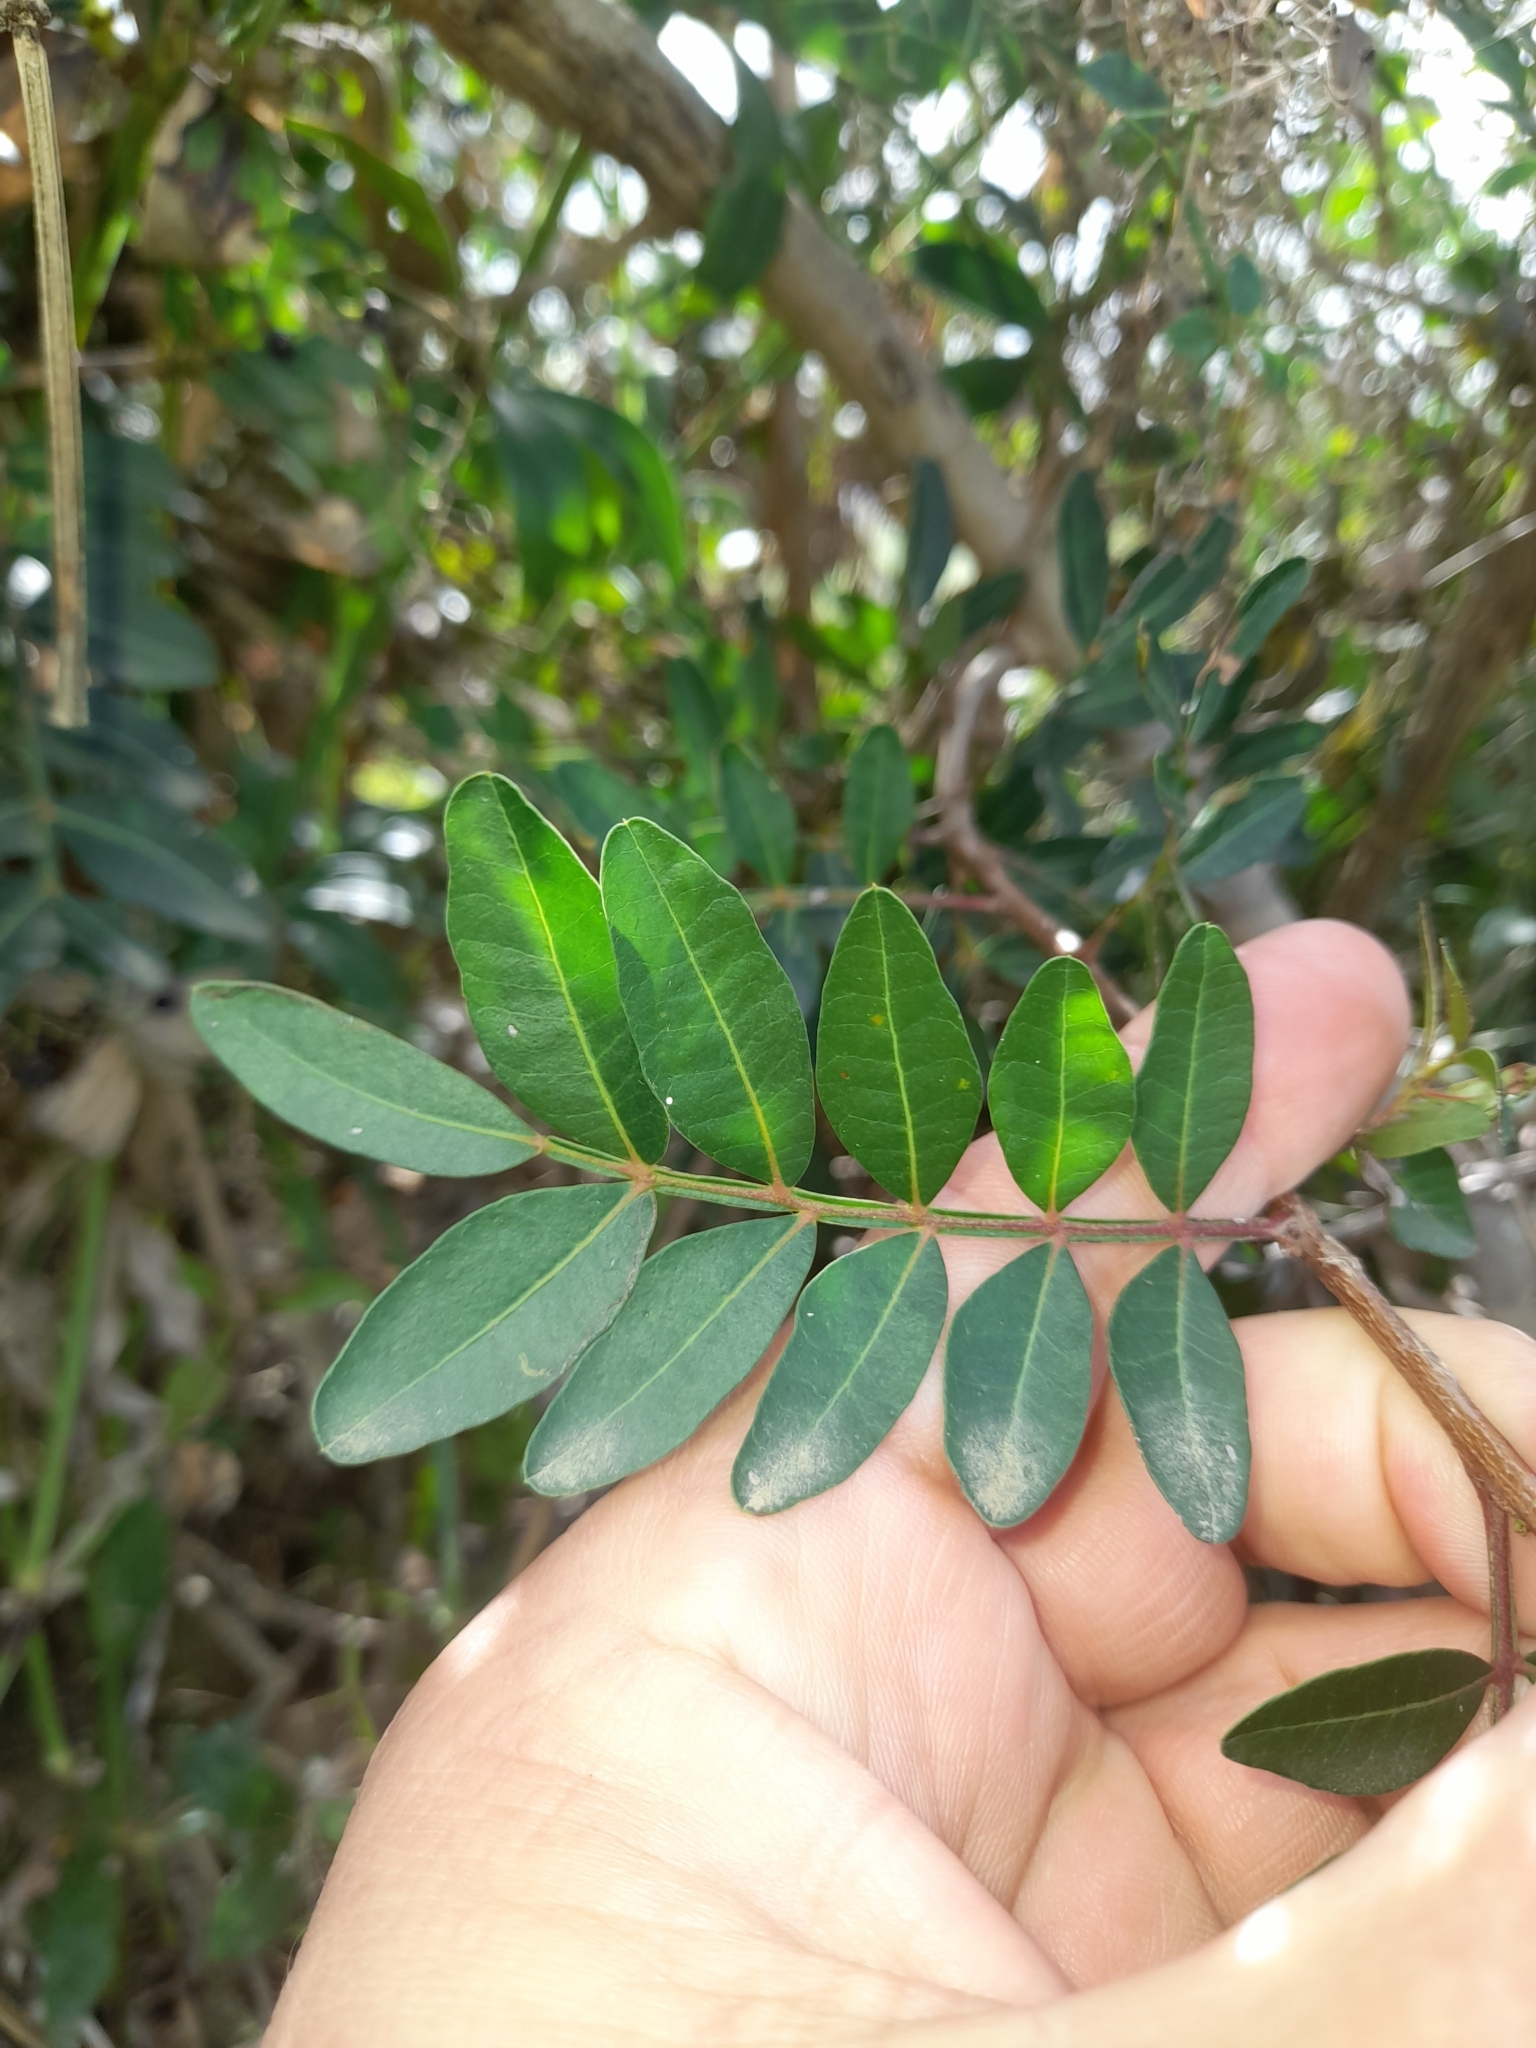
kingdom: Plantae
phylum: Tracheophyta
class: Magnoliopsida
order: Sapindales
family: Anacardiaceae
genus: Pistacia
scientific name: Pistacia lentiscus
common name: Lentisk
